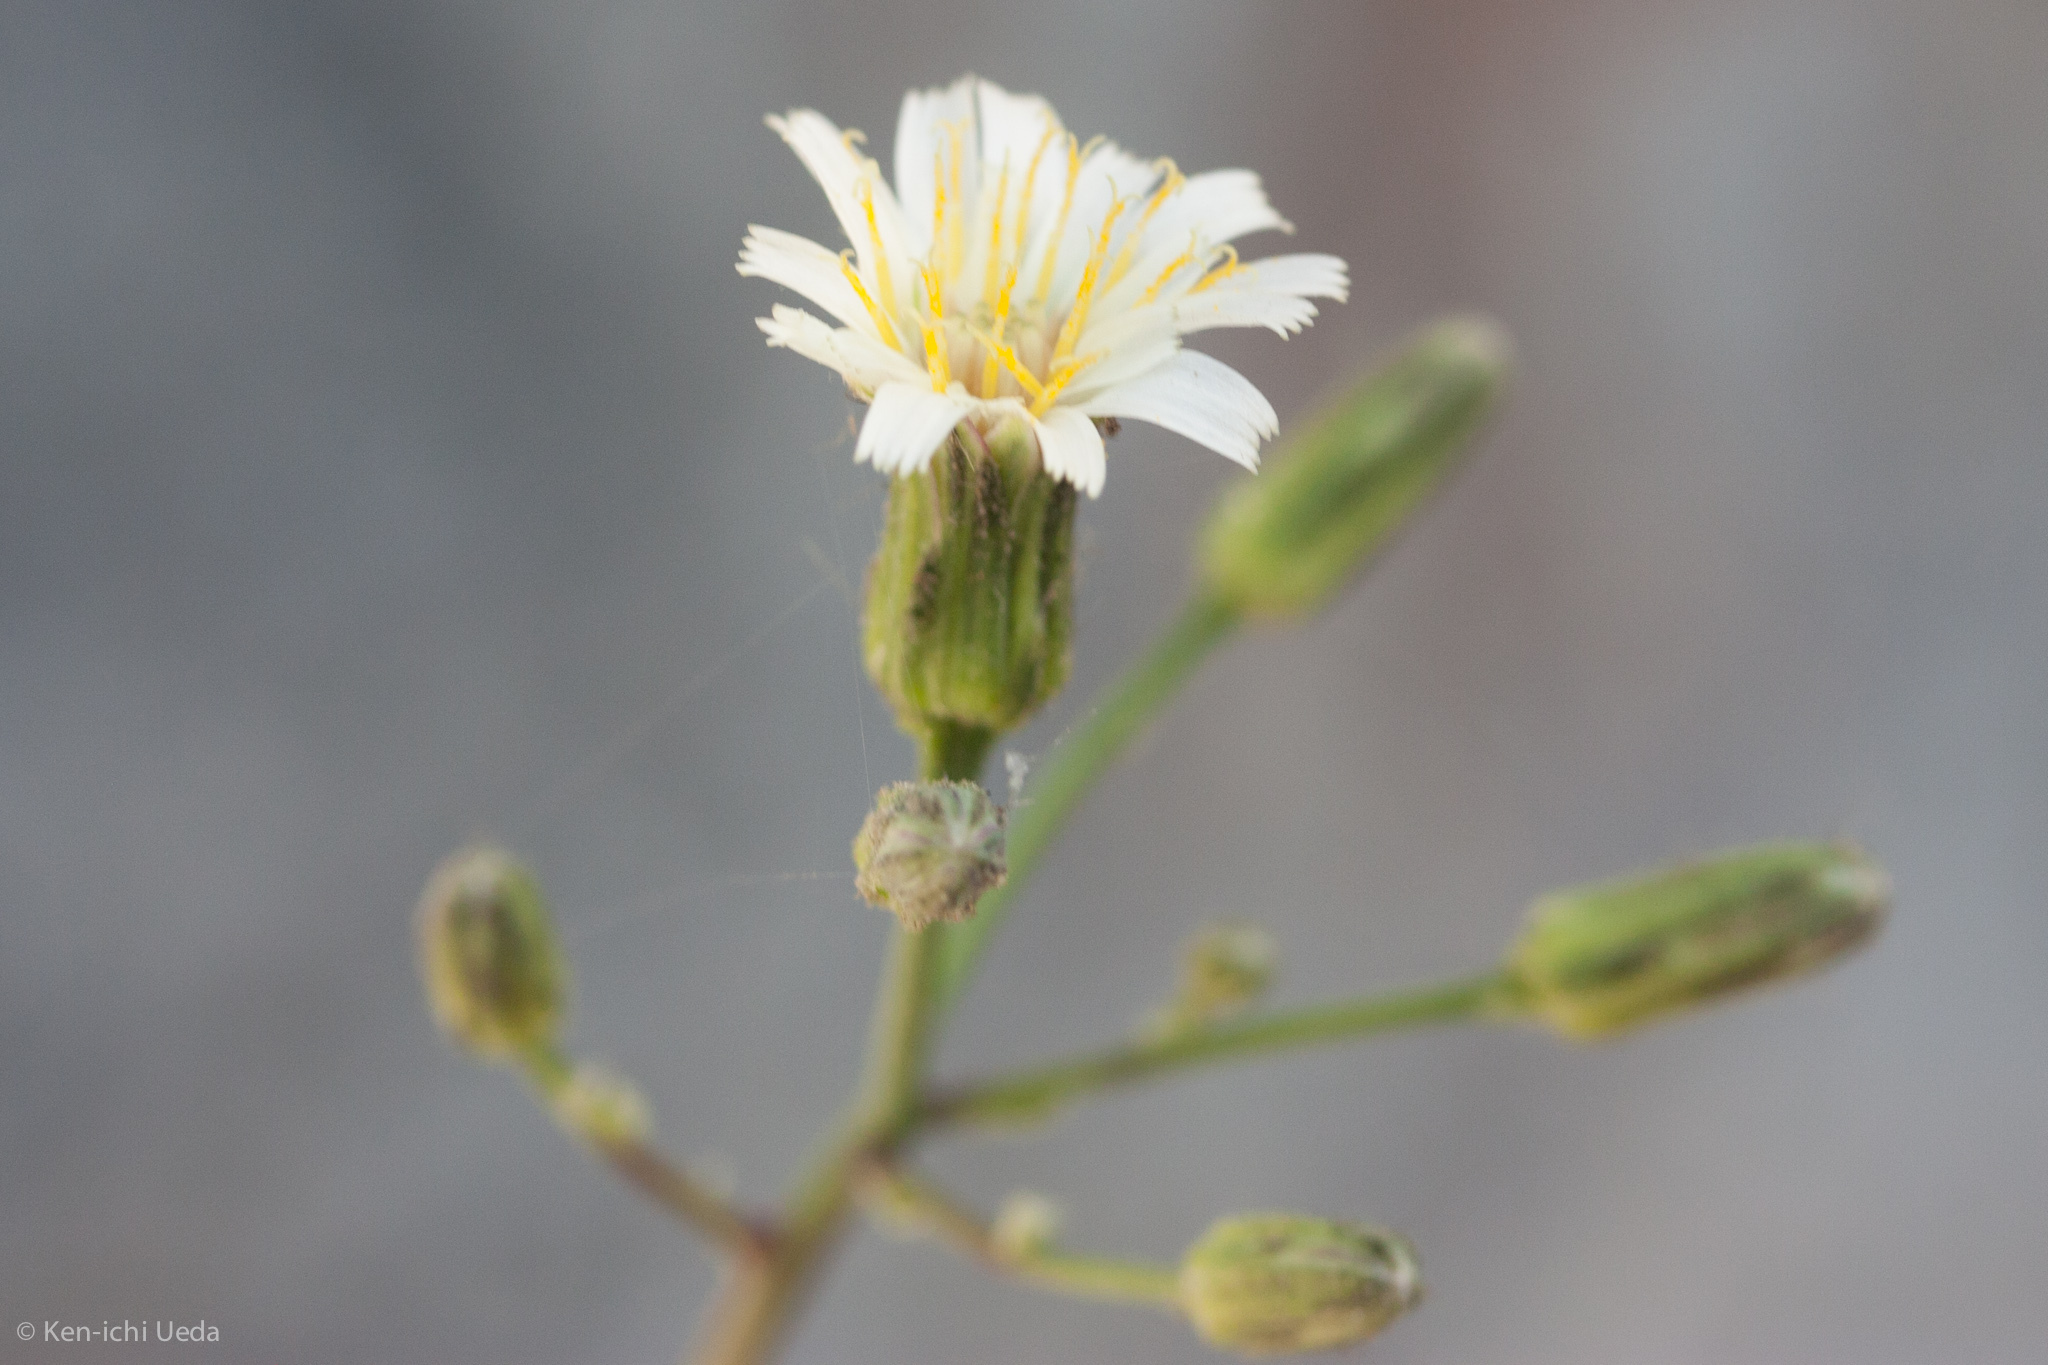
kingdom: Plantae
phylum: Tracheophyta
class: Magnoliopsida
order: Asterales
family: Asteraceae
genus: Hieracium
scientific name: Hieracium albiflorum
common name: White hawkweed
